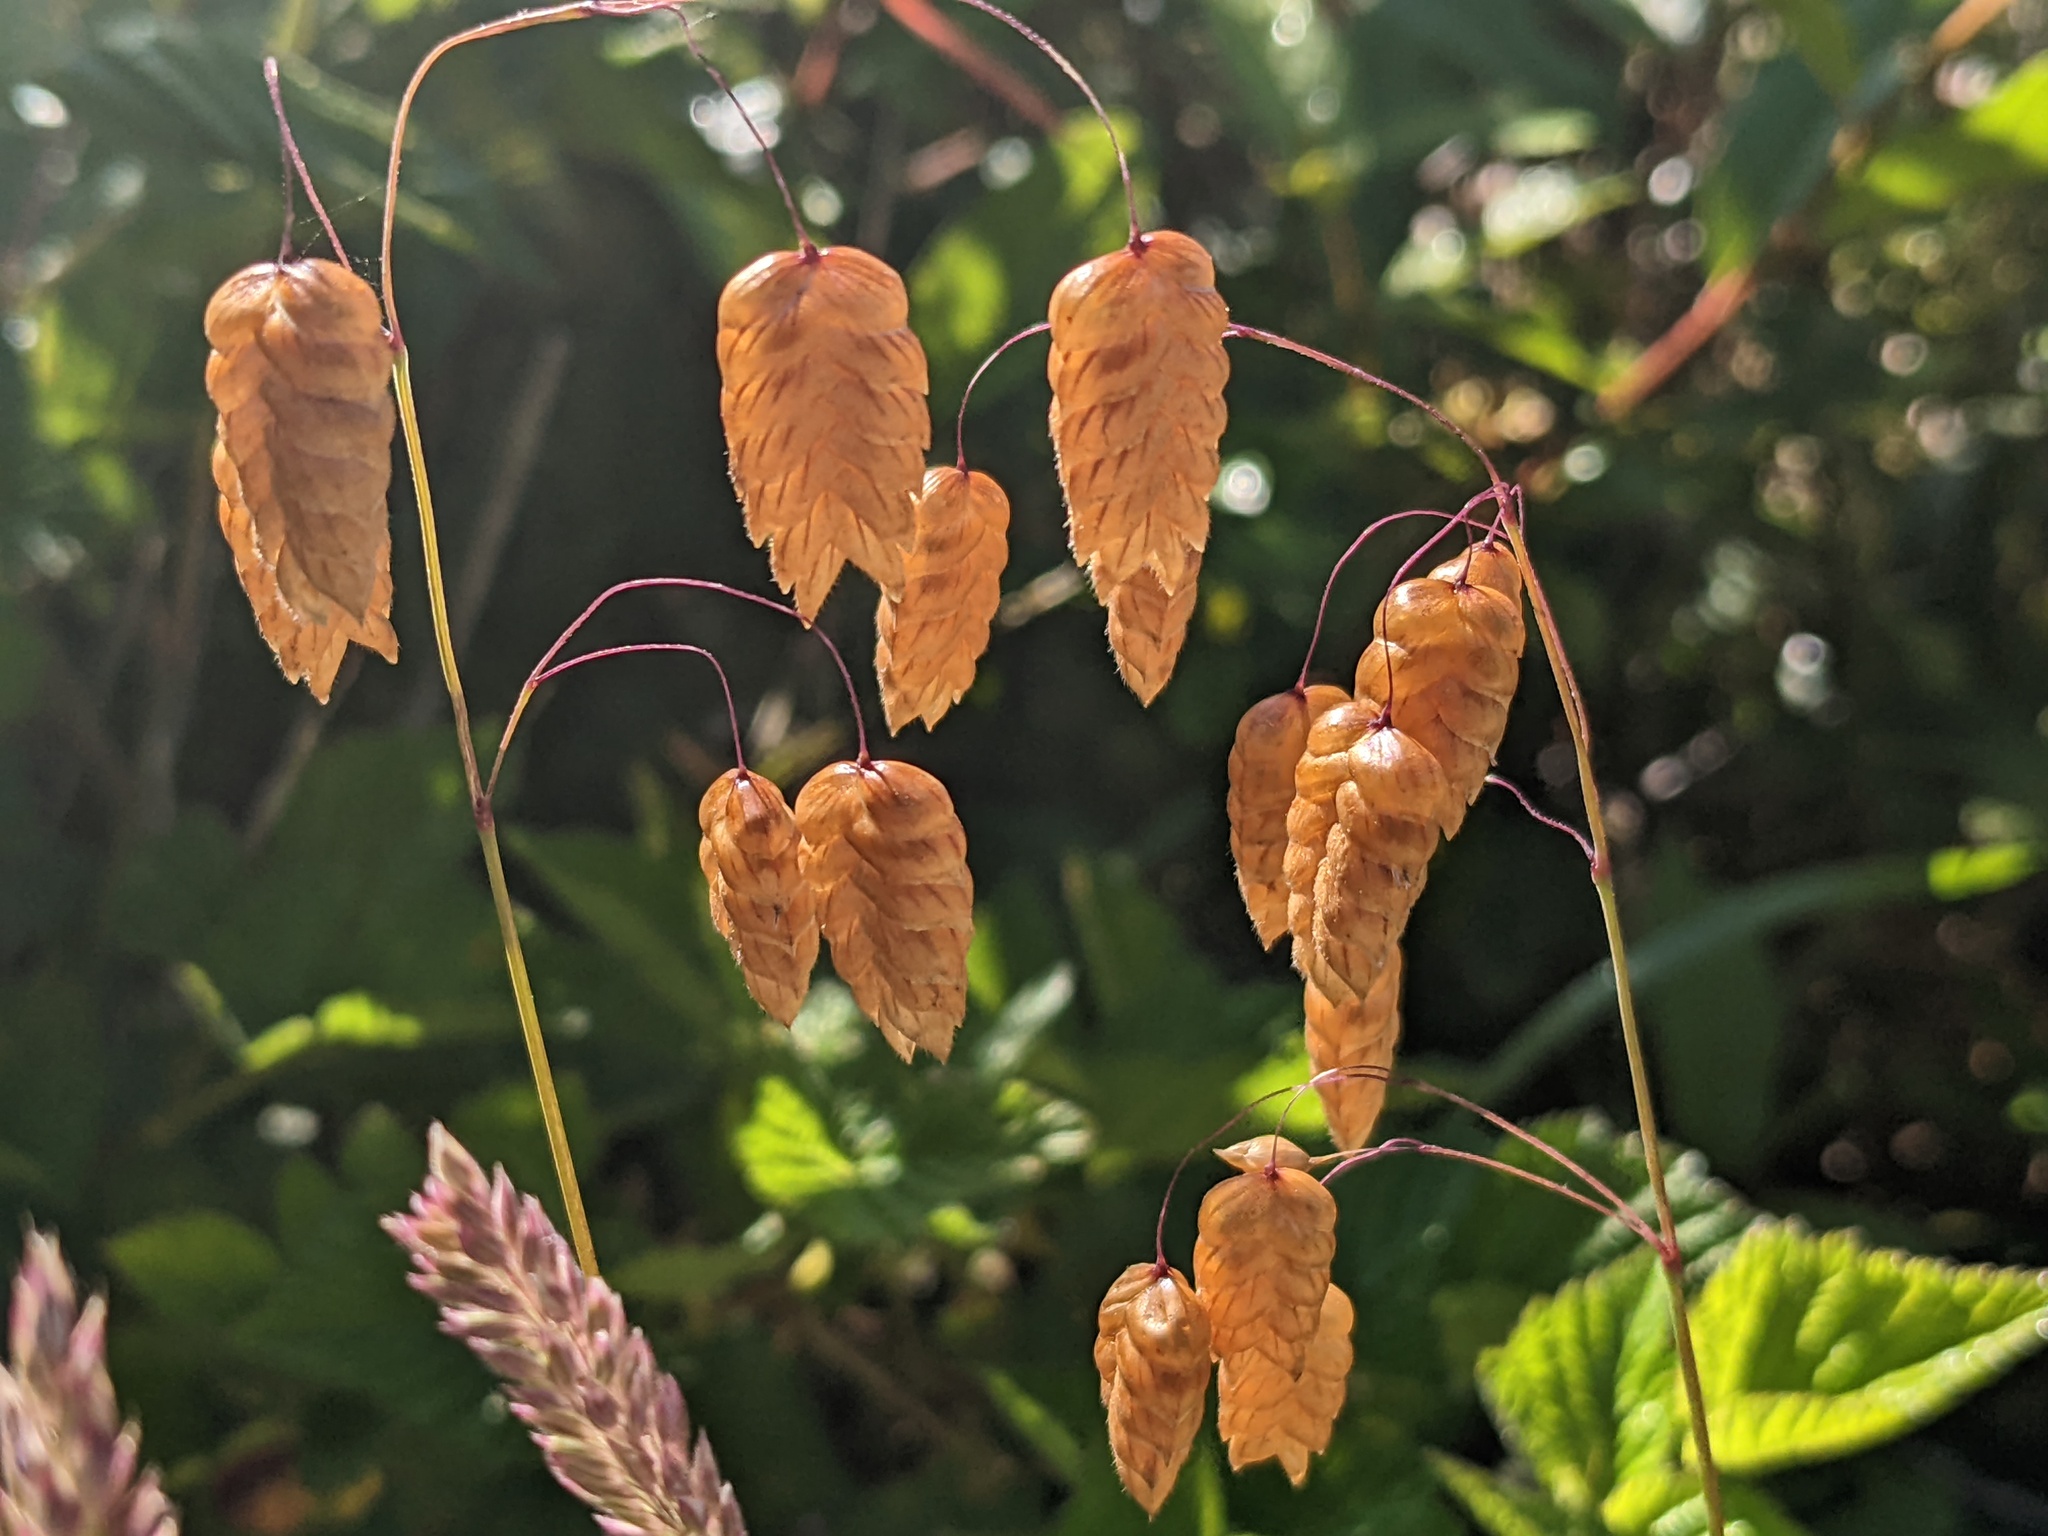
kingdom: Plantae
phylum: Tracheophyta
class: Liliopsida
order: Poales
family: Poaceae
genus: Briza
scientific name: Briza maxima
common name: Big quakinggrass
